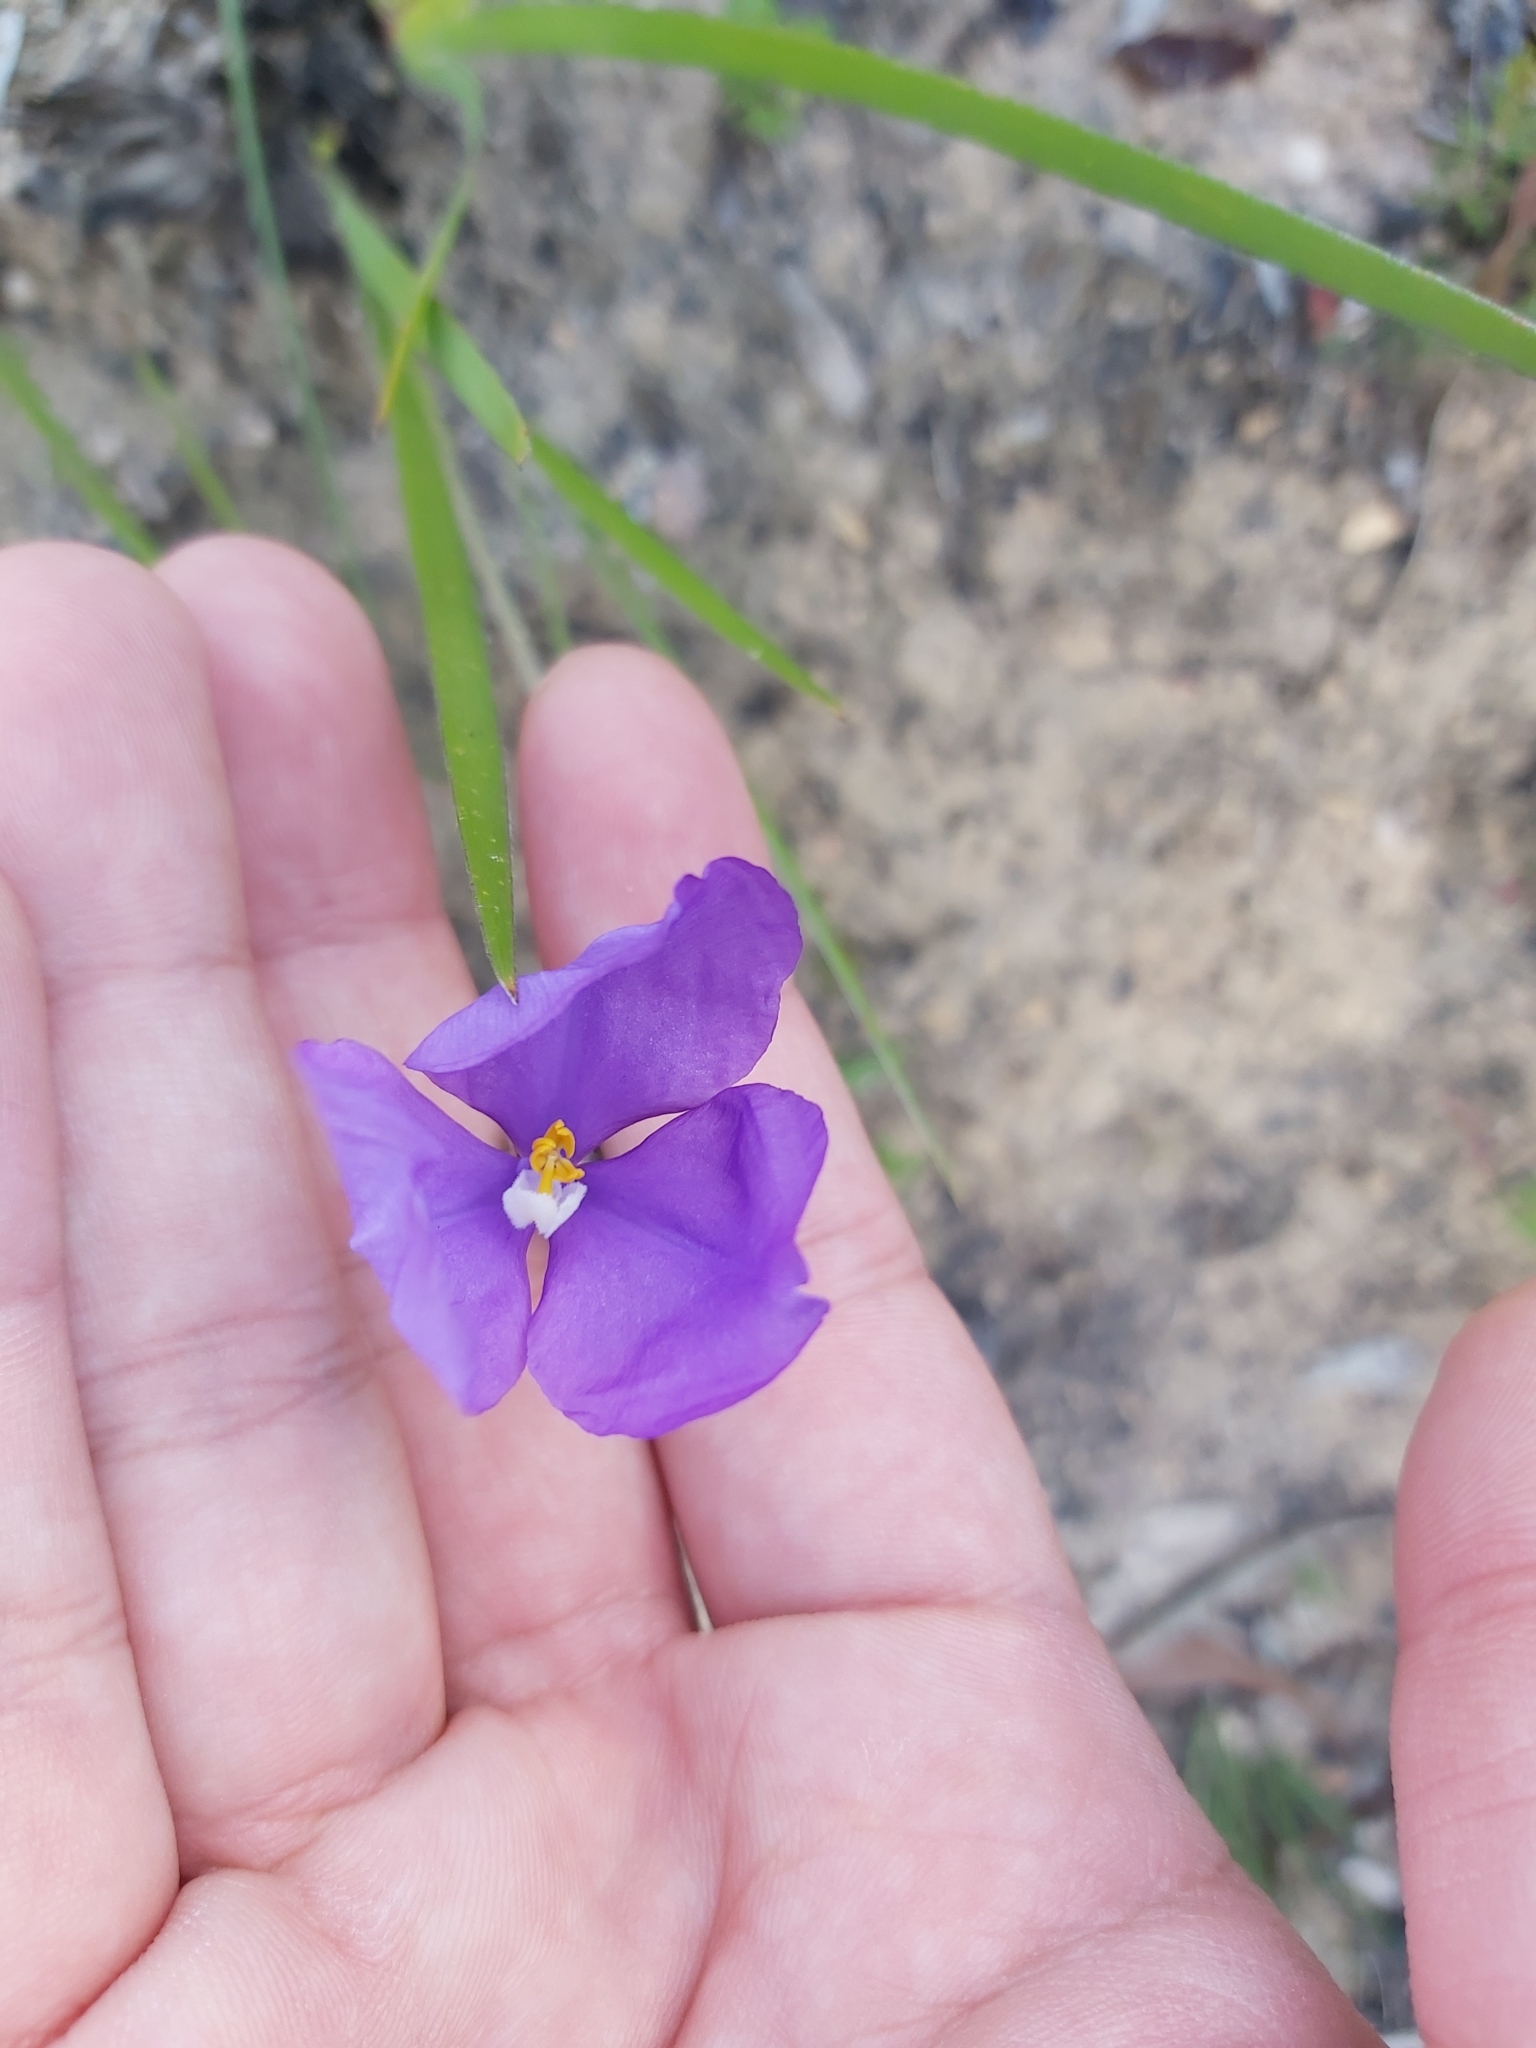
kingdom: Plantae
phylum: Tracheophyta
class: Liliopsida
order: Asparagales
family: Iridaceae
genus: Patersonia
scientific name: Patersonia sericea
